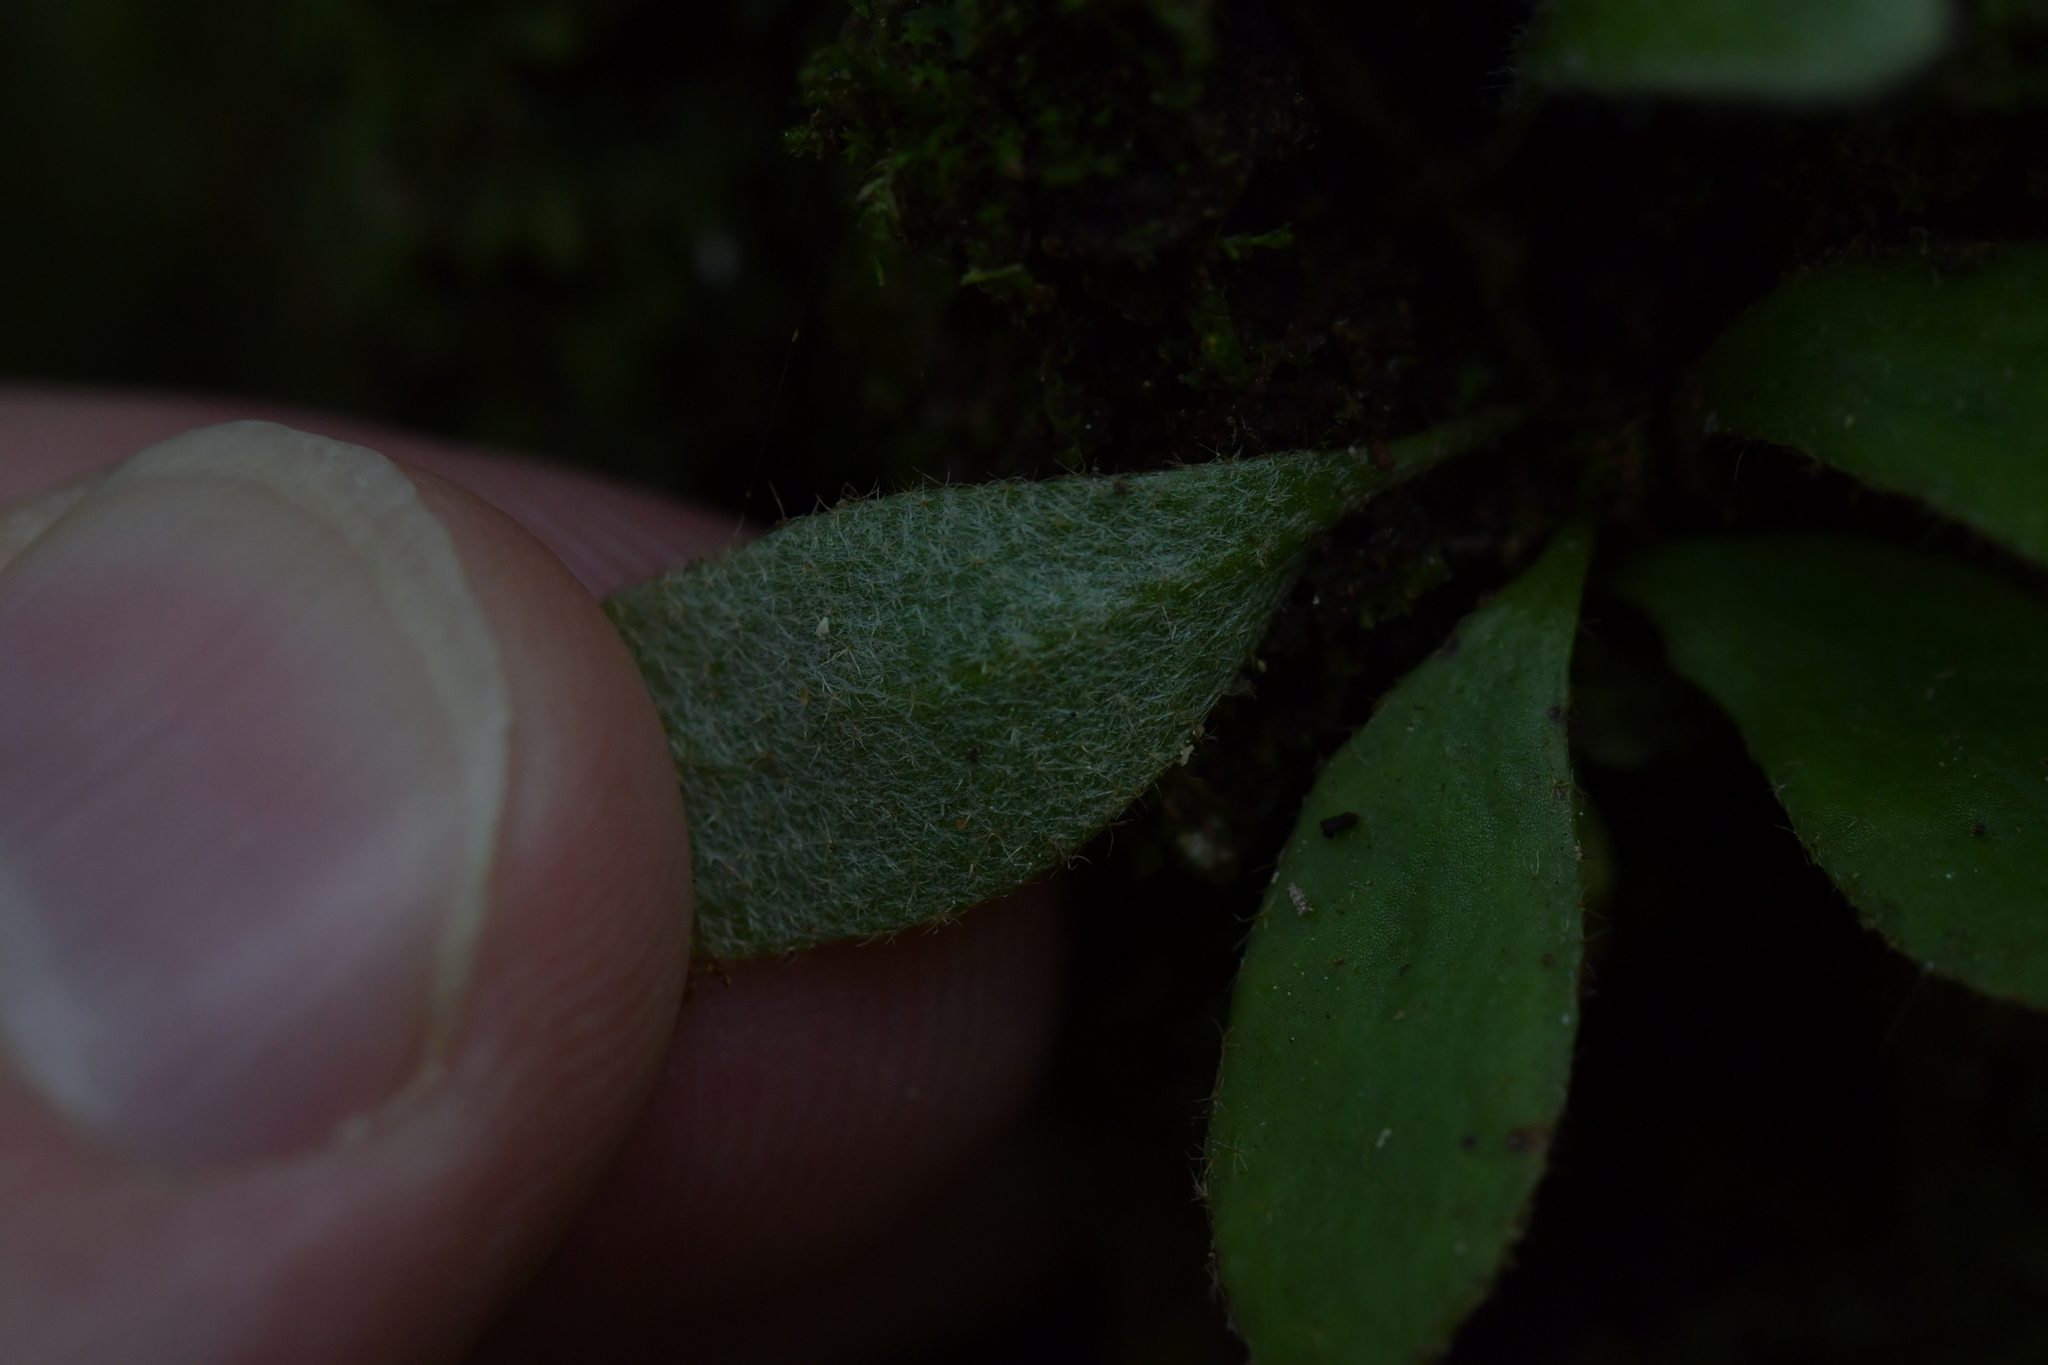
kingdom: Plantae
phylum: Tracheophyta
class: Polypodiopsida
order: Polypodiales
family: Polypodiaceae
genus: Pyrrosia
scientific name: Pyrrosia eleagnifolia
